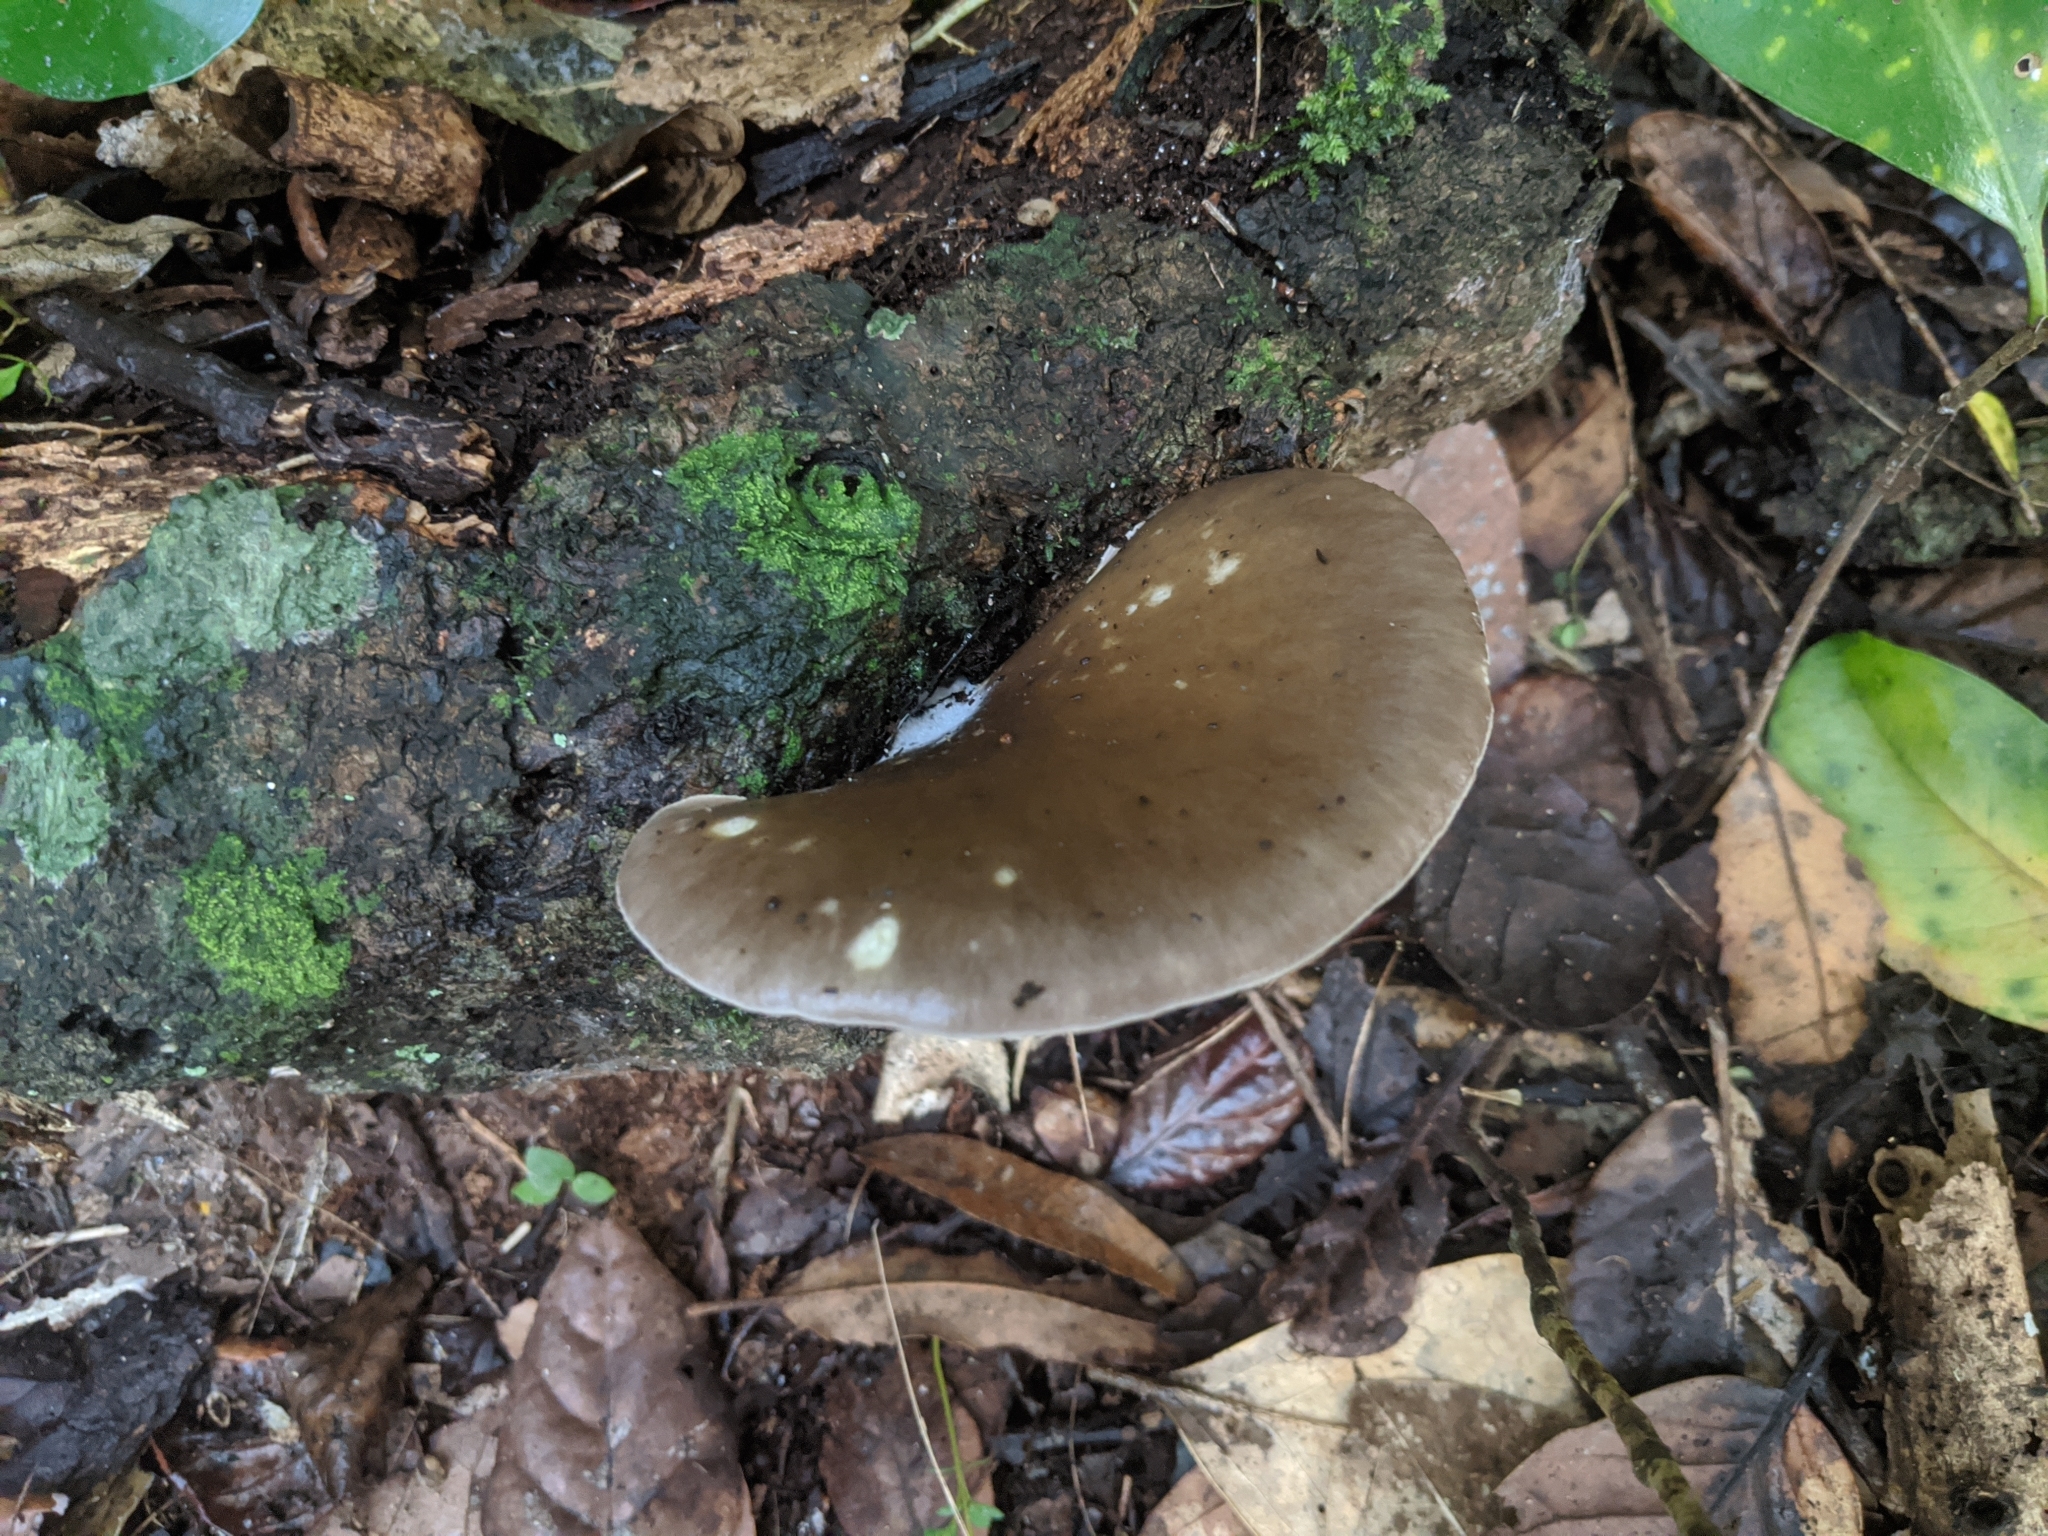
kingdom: Fungi
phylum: Basidiomycota
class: Agaricomycetes
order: Agaricales
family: Pleurotaceae
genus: Pleurotus
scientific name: Pleurotus australis
